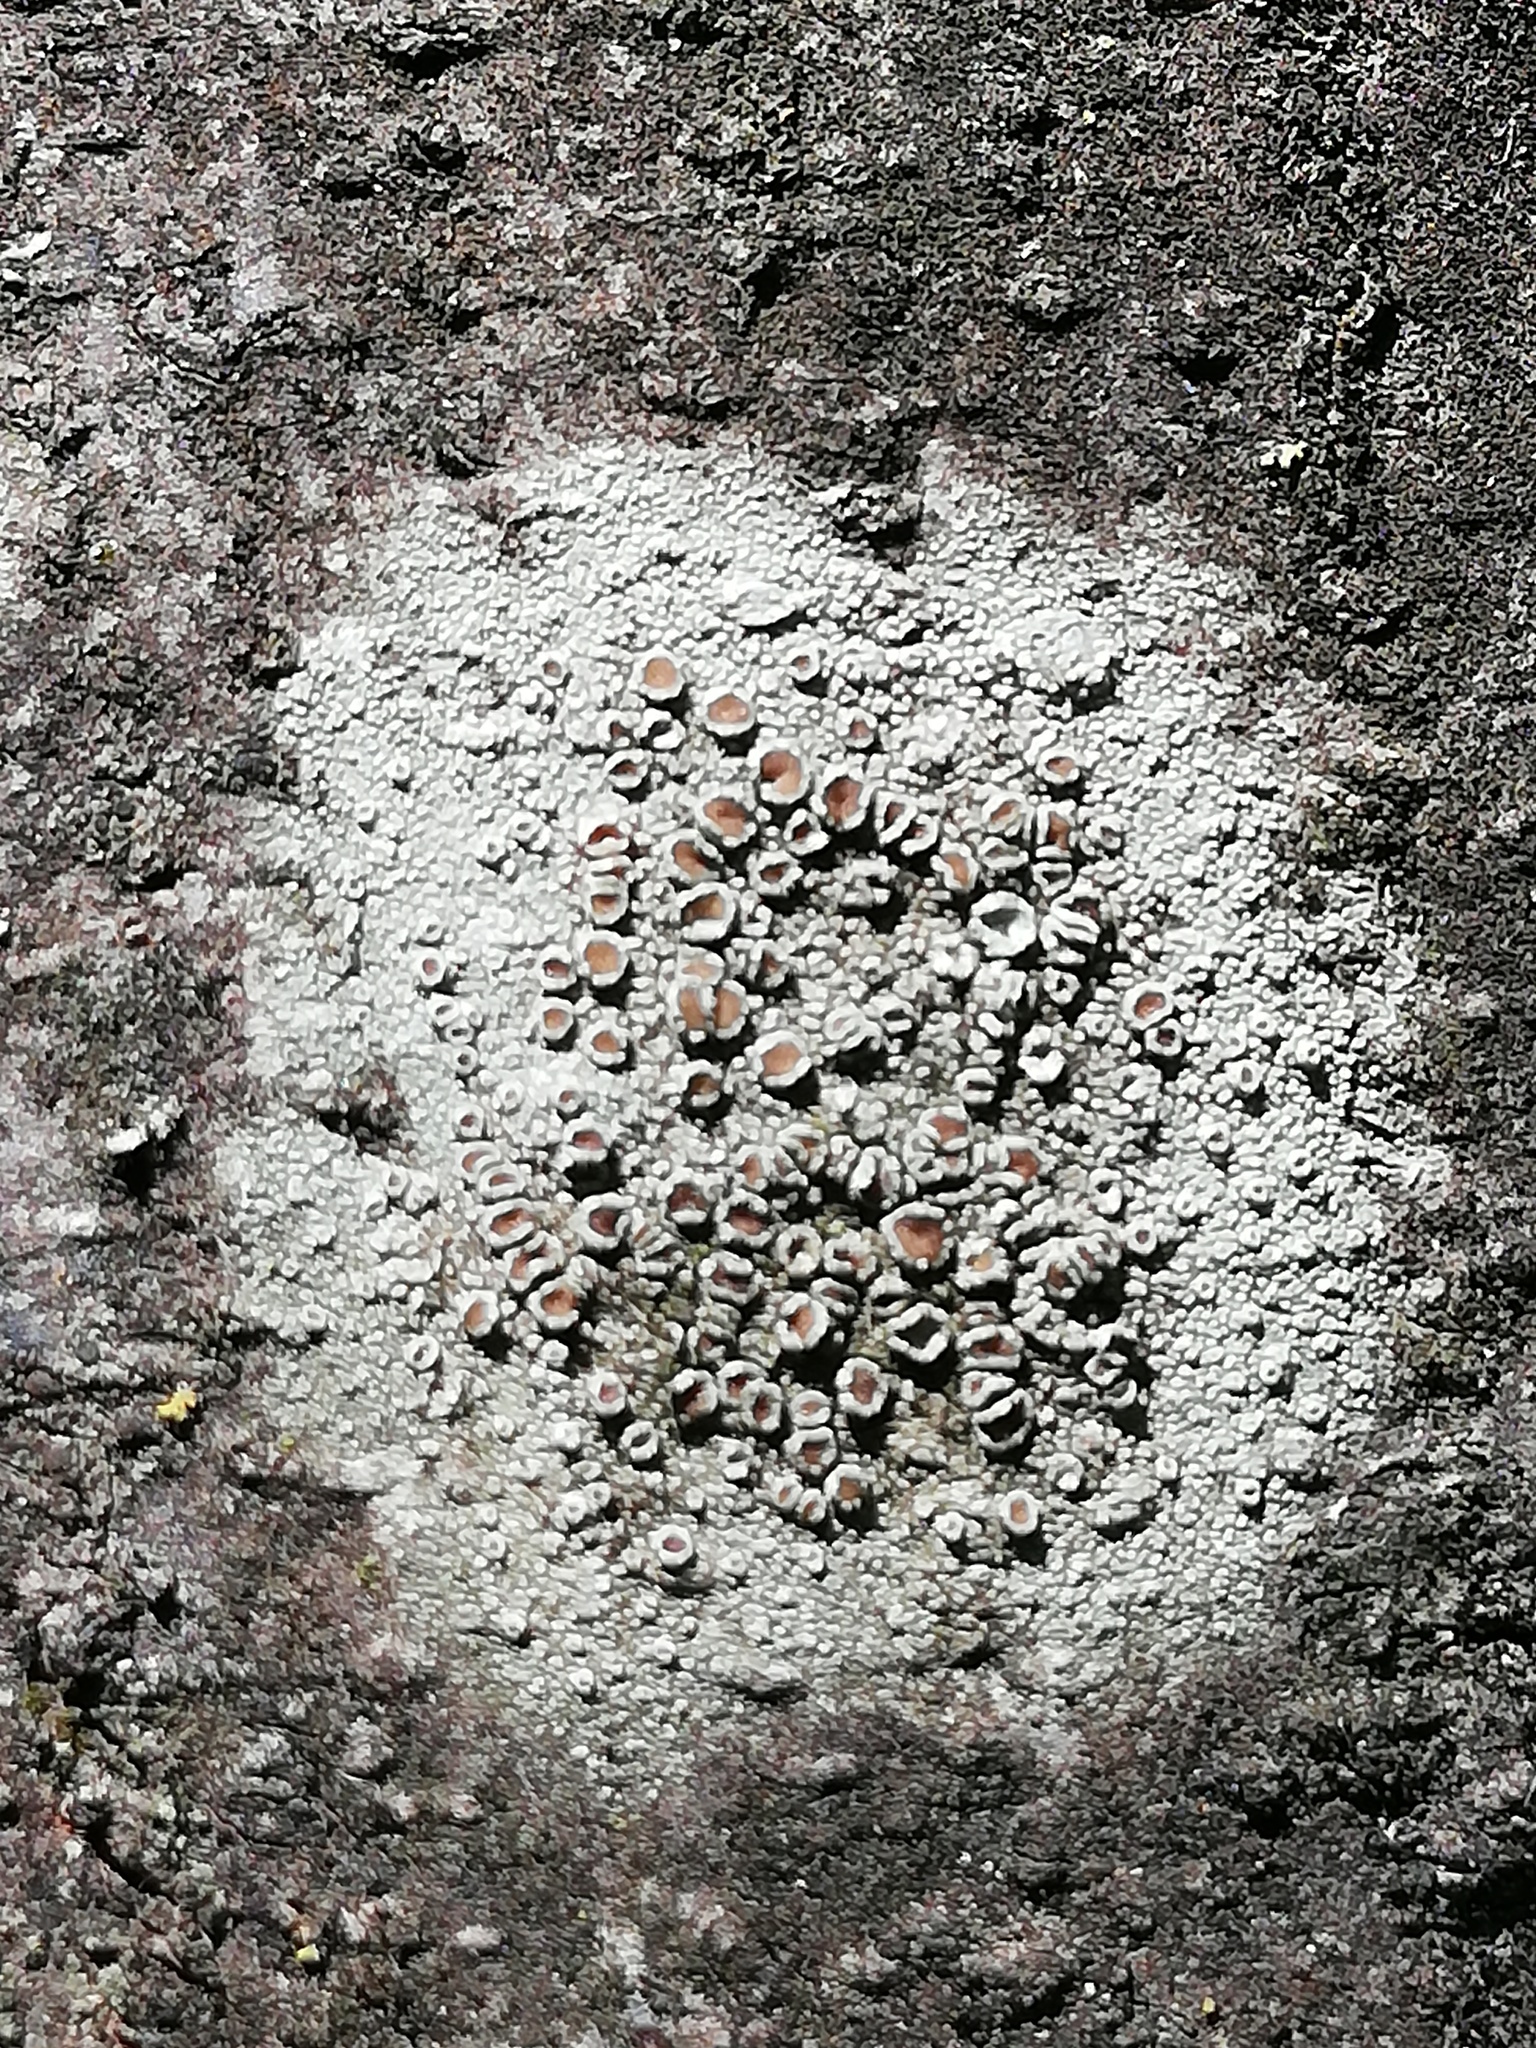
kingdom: Fungi
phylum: Ascomycota
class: Lecanoromycetes
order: Lecanorales
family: Lecanoraceae
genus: Lecanora
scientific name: Lecanora hybocarpa
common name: Bumpy rim-lichen
